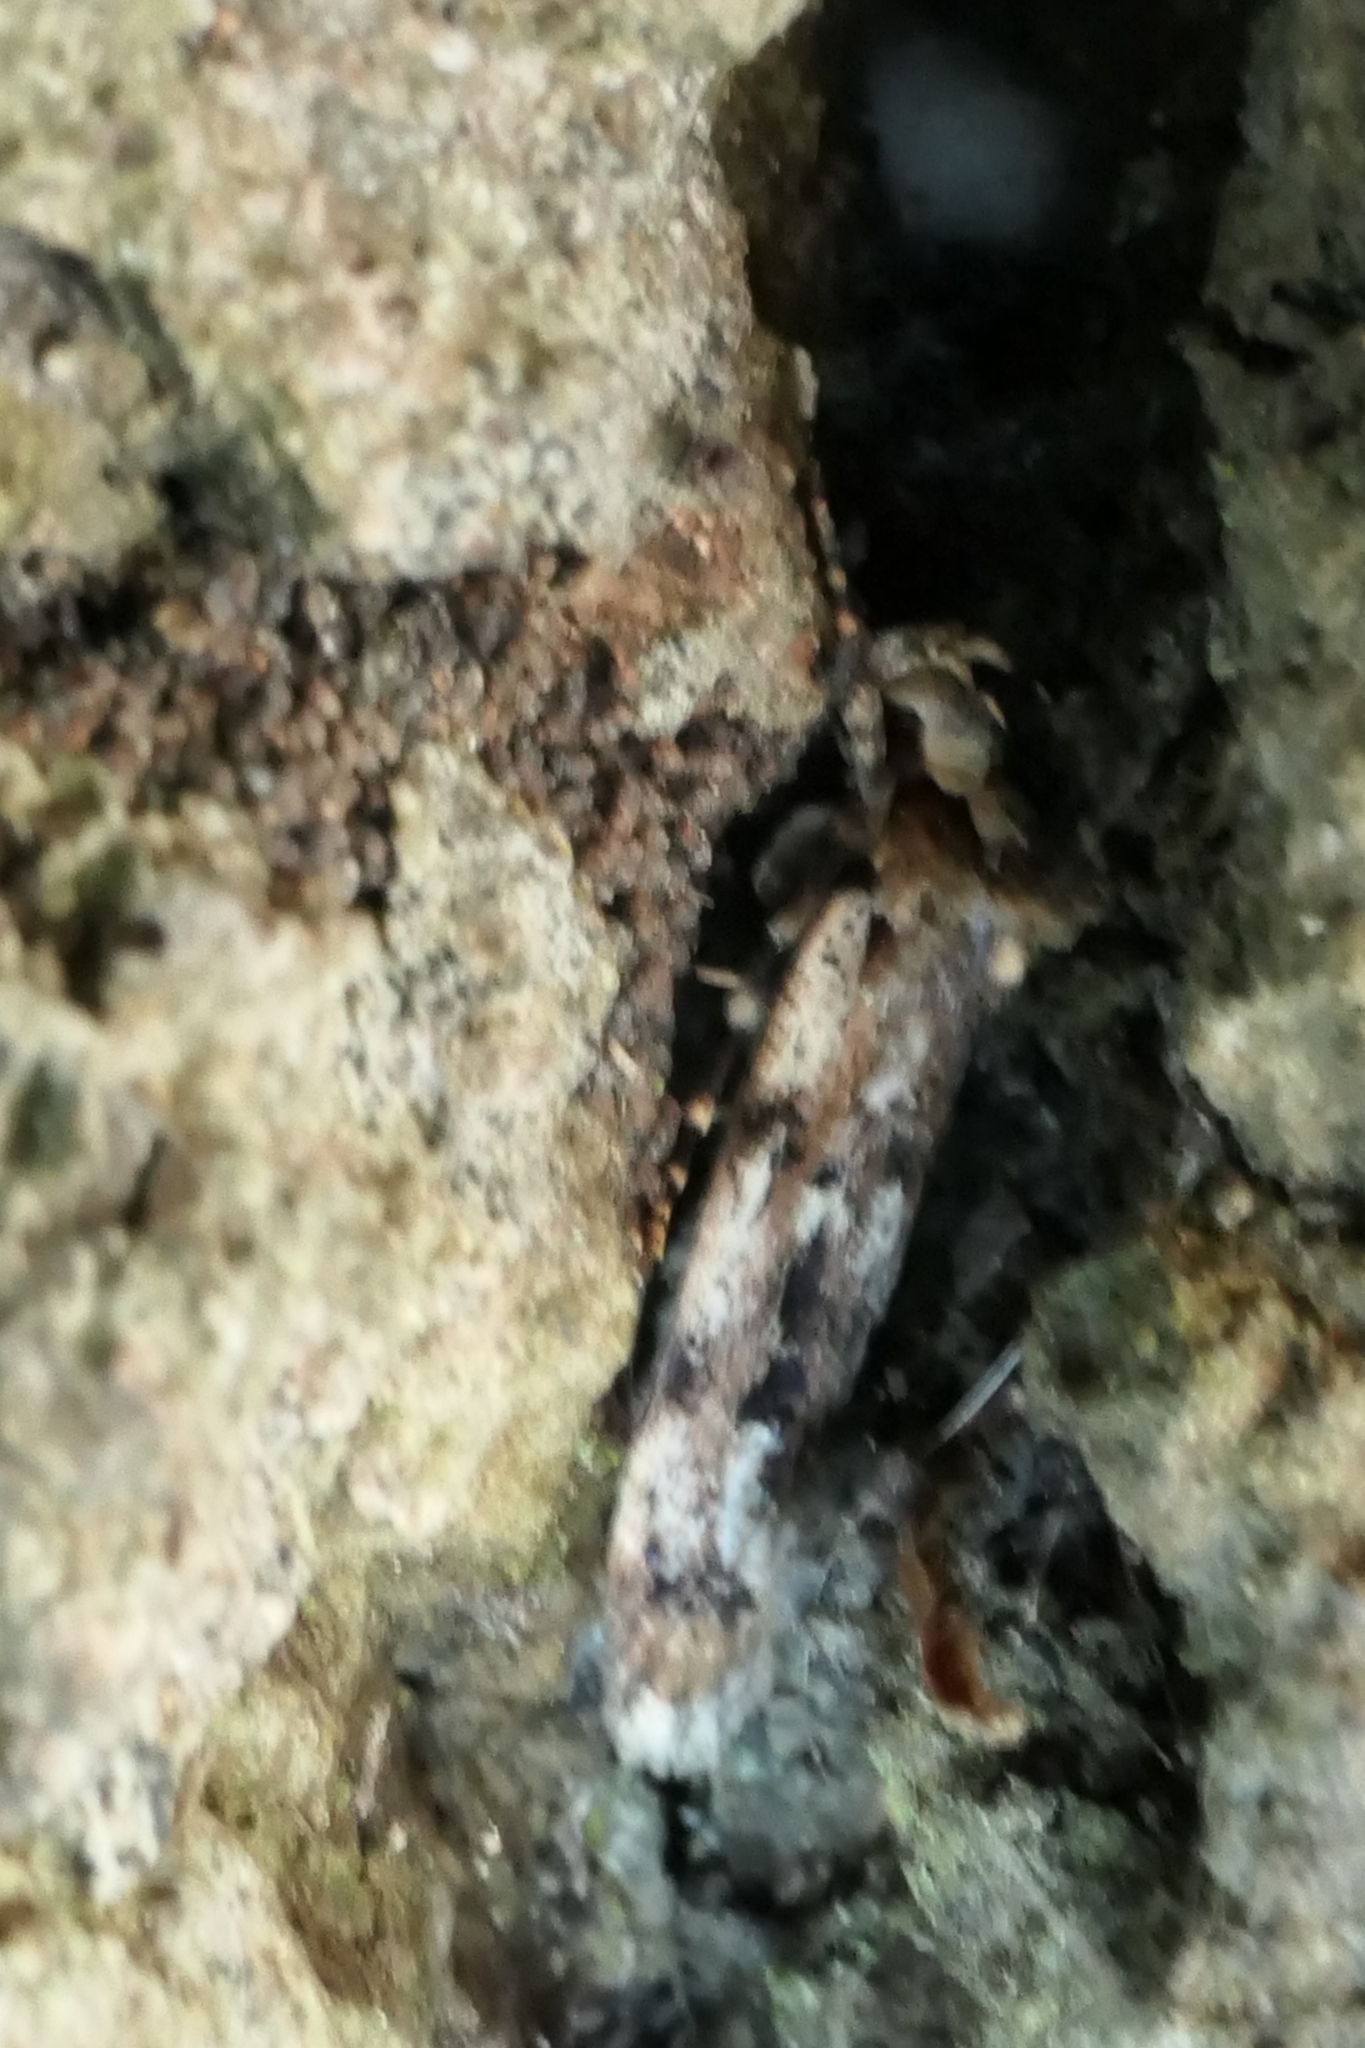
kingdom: Animalia
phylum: Arthropoda
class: Insecta
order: Lepidoptera
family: Oecophoridae
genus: Barea
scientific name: Barea exarcha
